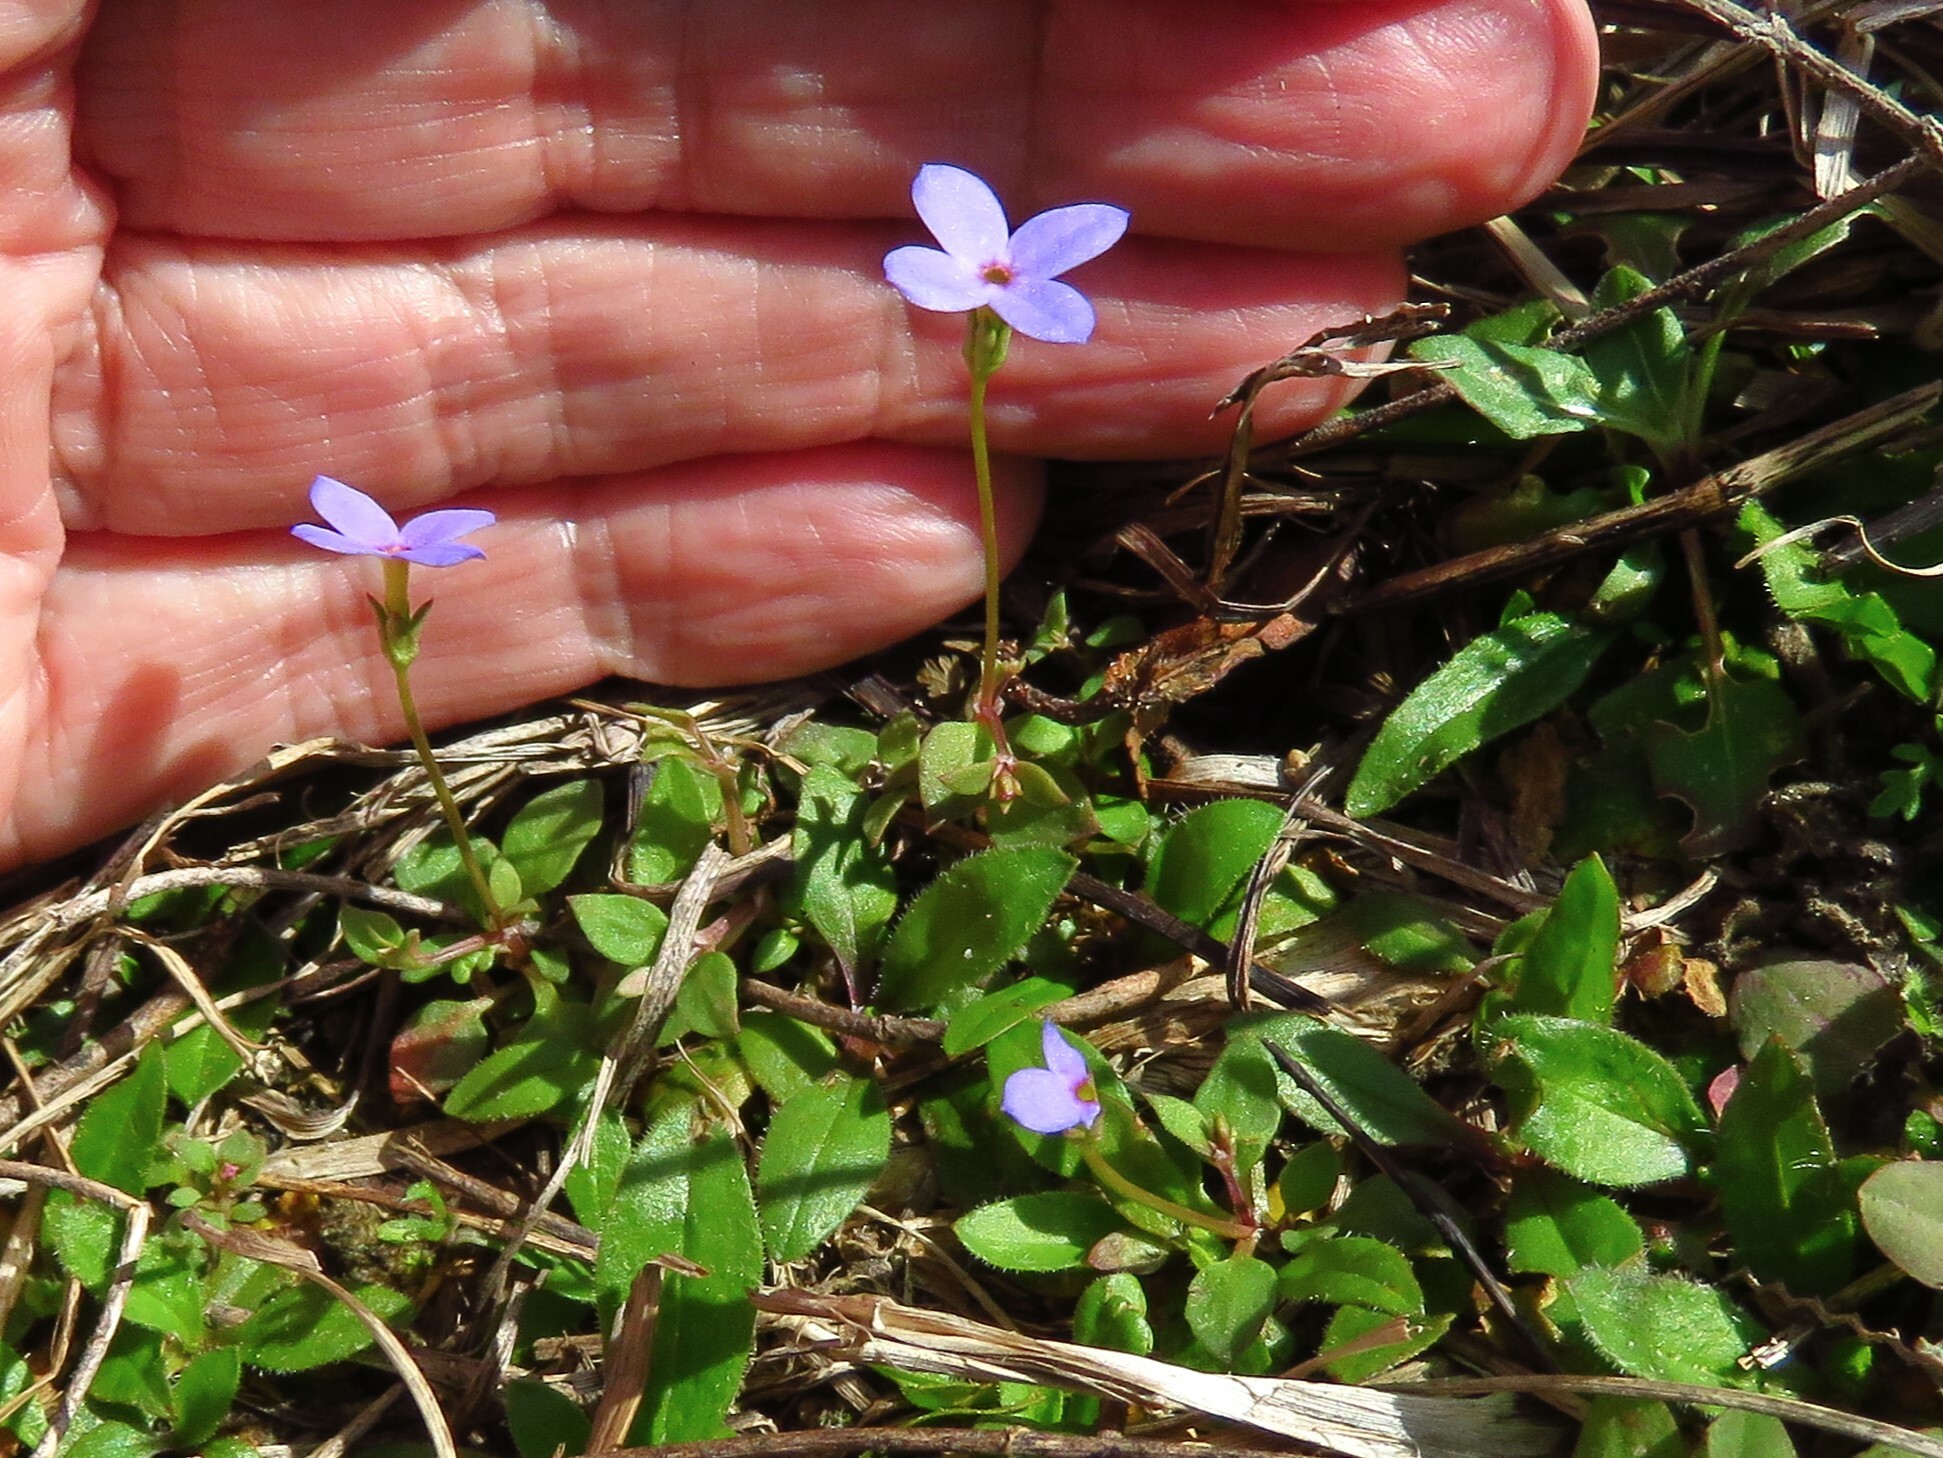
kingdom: Plantae
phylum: Tracheophyta
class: Magnoliopsida
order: Gentianales
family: Rubiaceae
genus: Houstonia
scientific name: Houstonia pusilla
